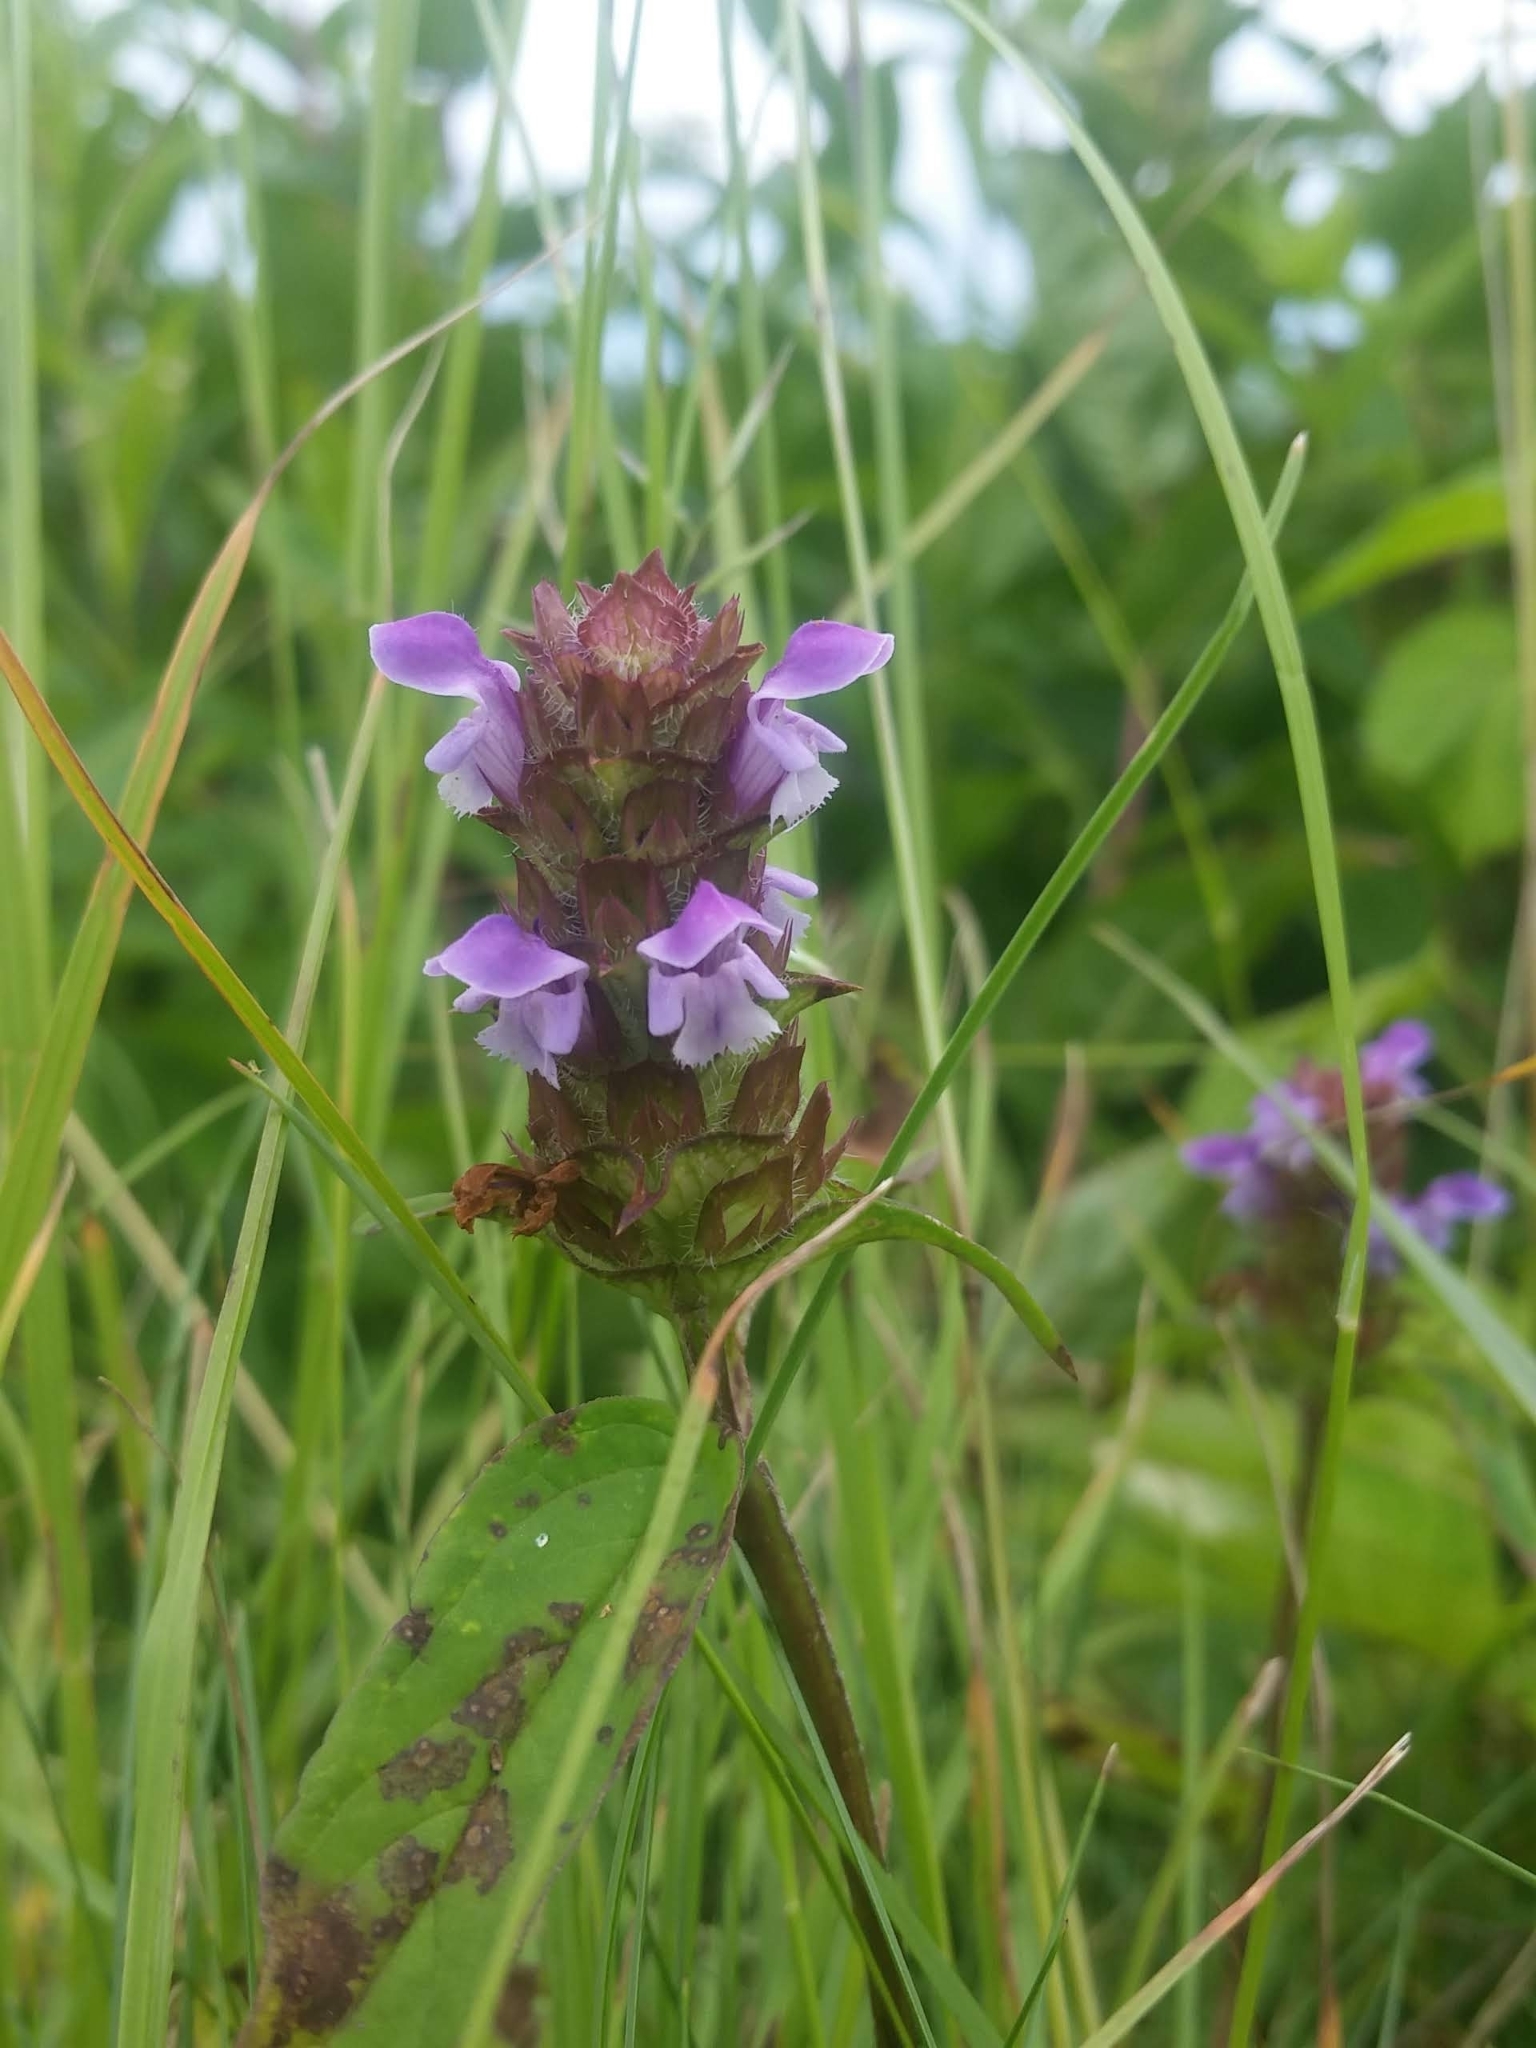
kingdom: Plantae
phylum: Tracheophyta
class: Magnoliopsida
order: Lamiales
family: Lamiaceae
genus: Prunella
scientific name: Prunella vulgaris
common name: Heal-all
